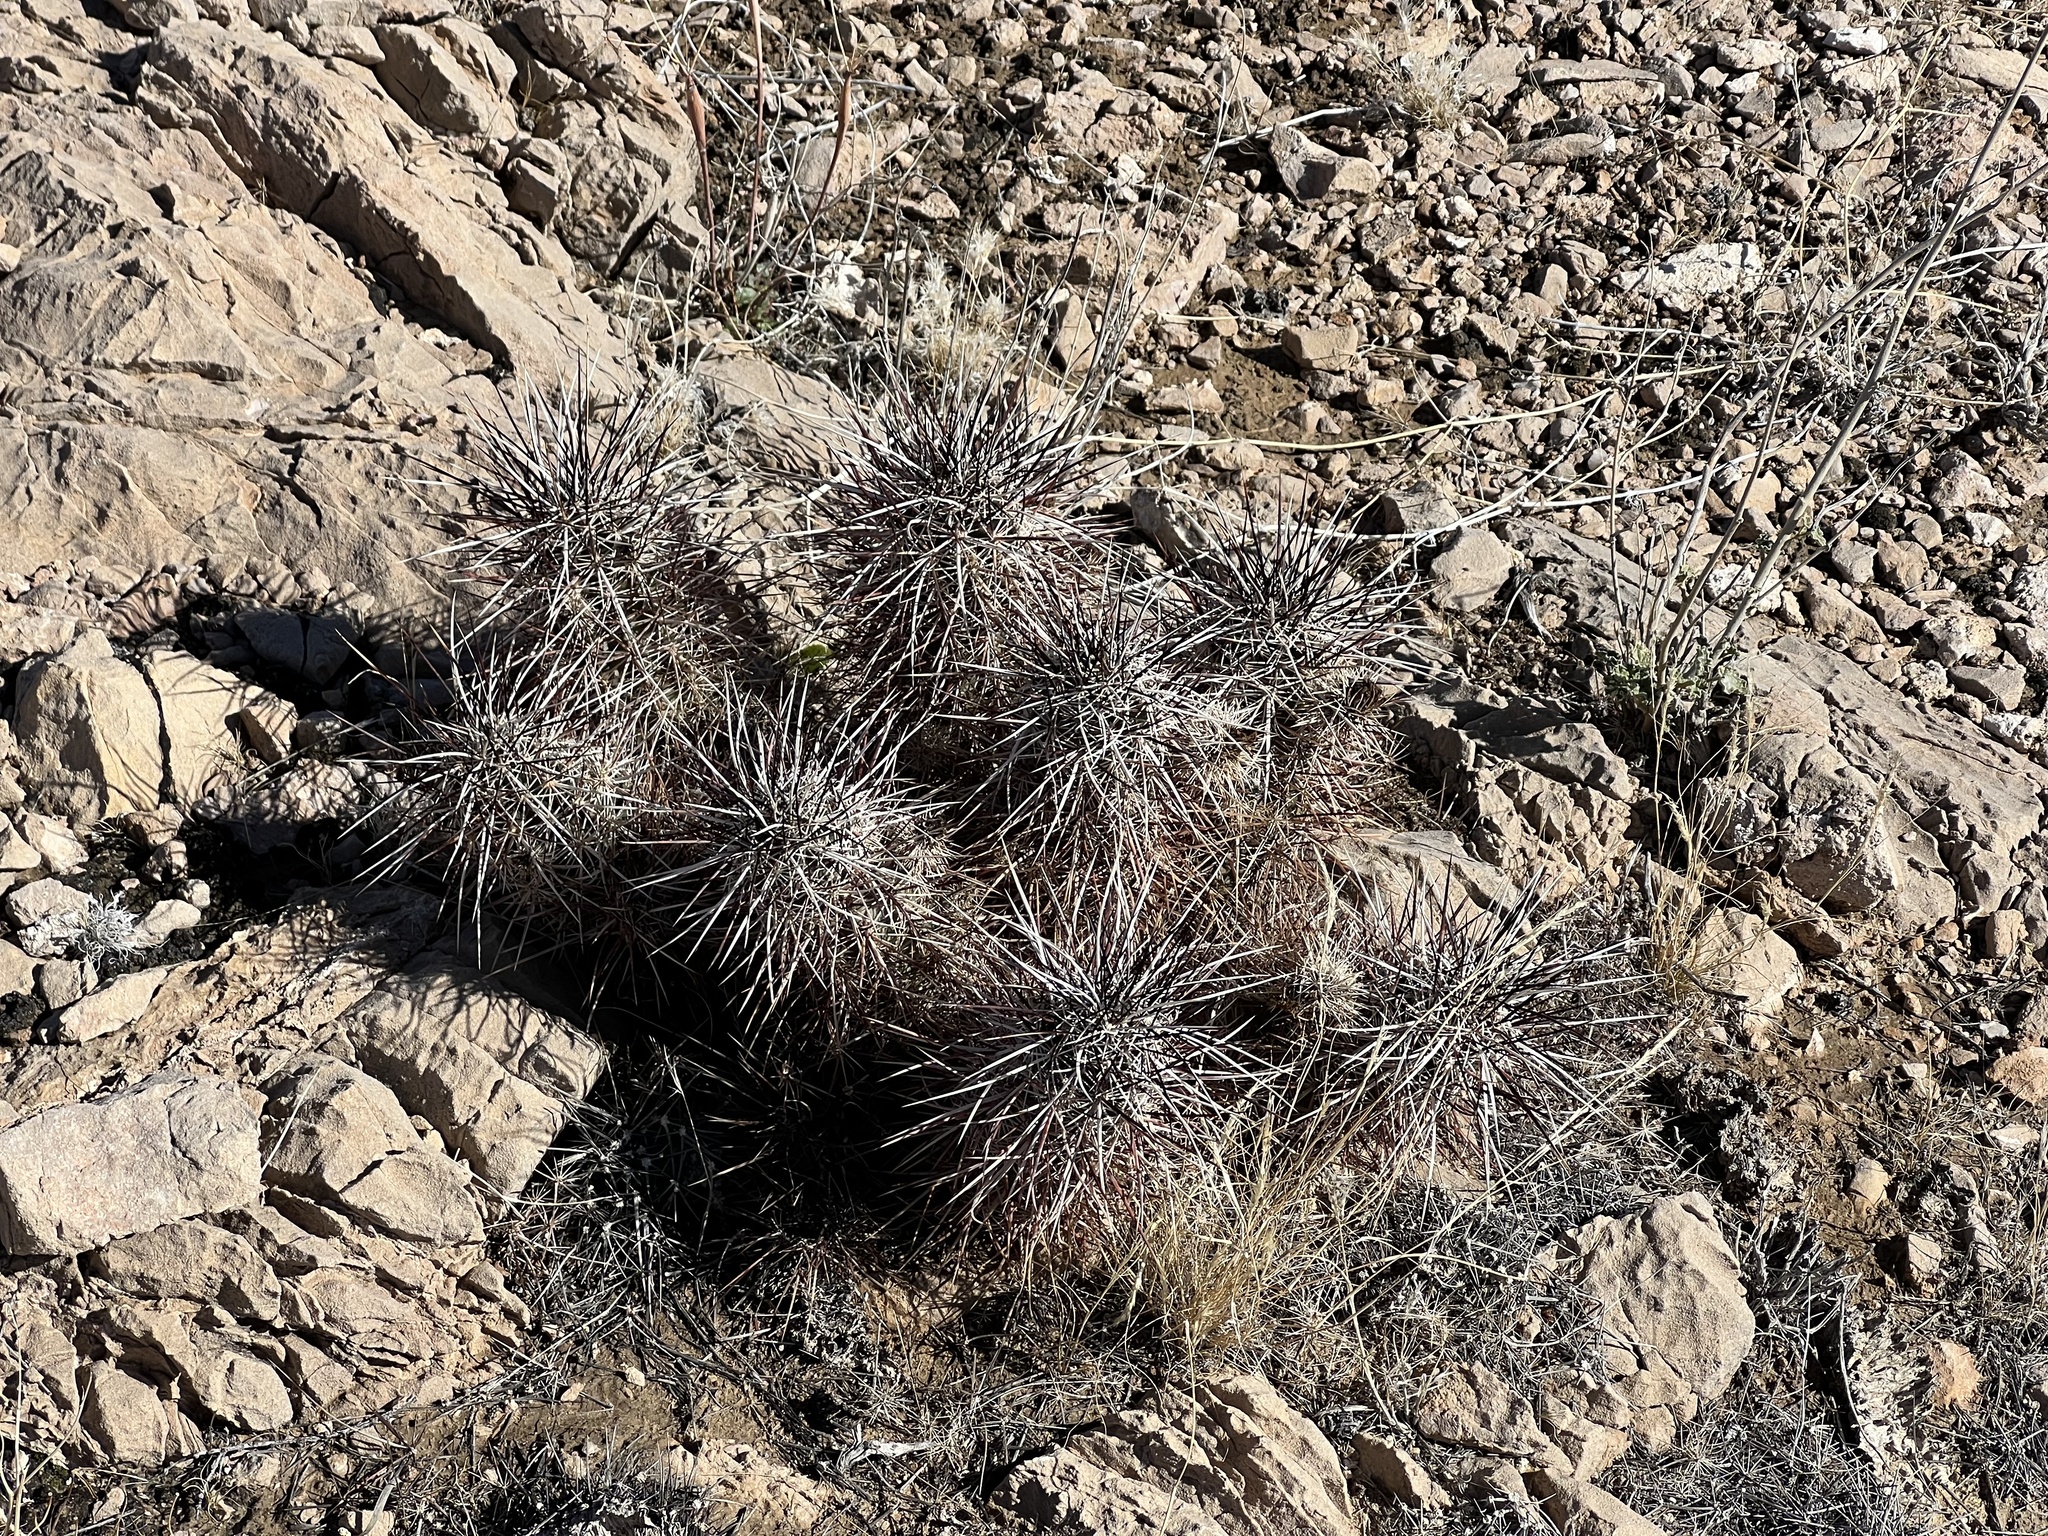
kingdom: Plantae
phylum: Tracheophyta
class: Magnoliopsida
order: Caryophyllales
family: Cactaceae
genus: Echinocereus
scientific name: Echinocereus engelmannii
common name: Engelmann's hedgehog cactus
